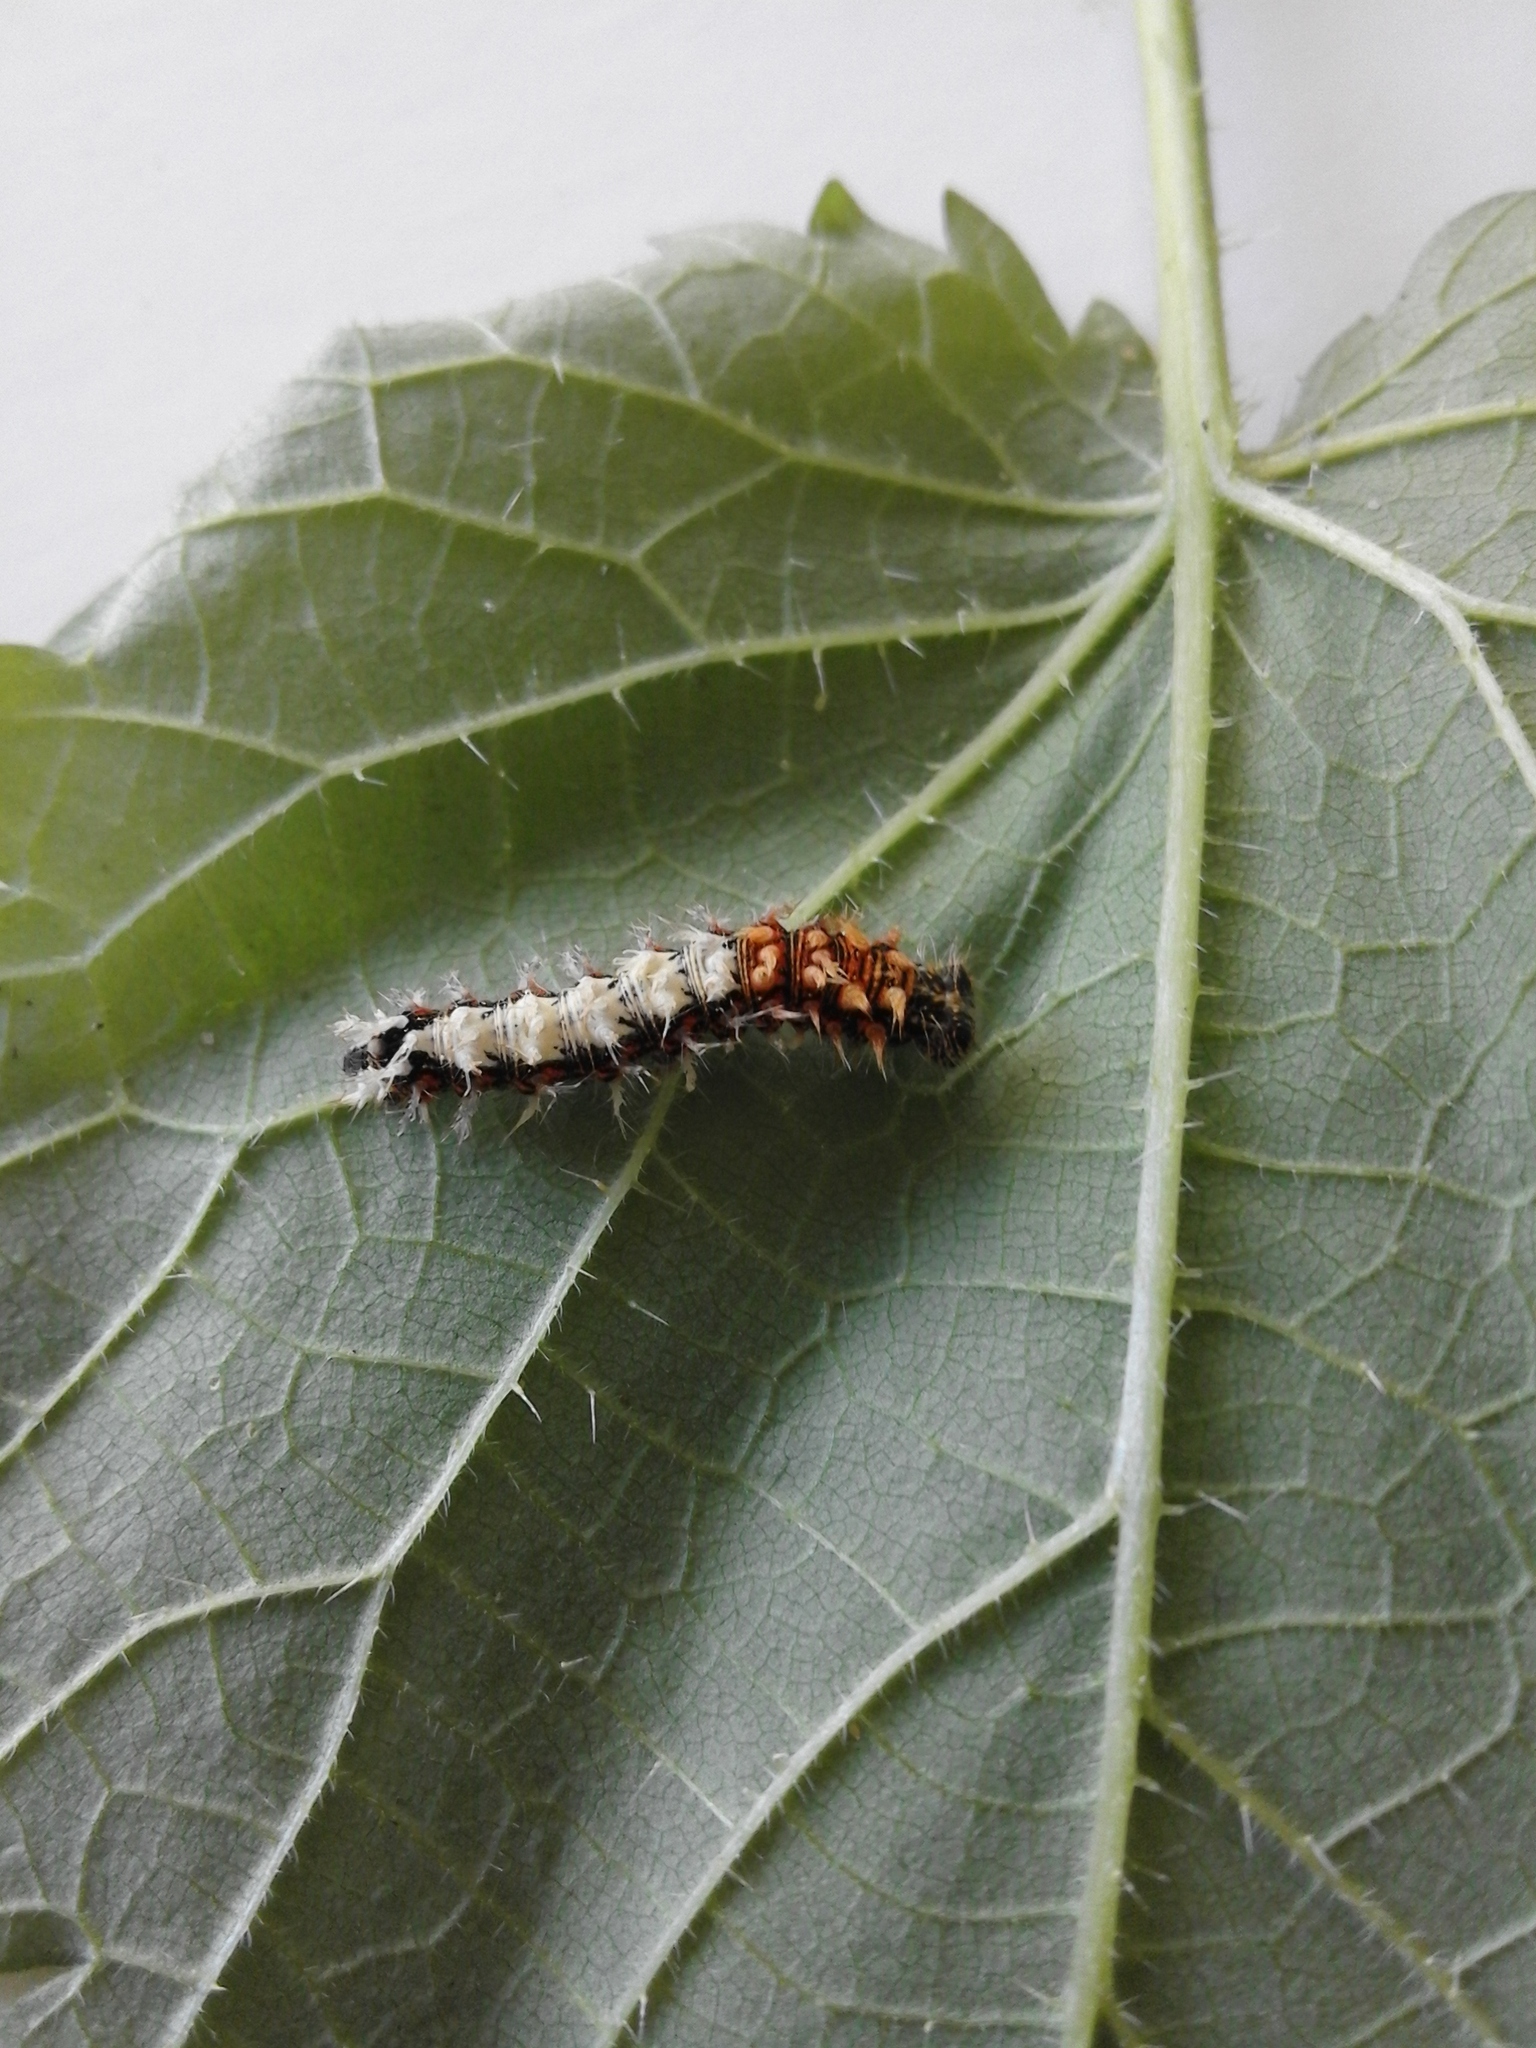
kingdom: Animalia
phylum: Arthropoda
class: Insecta
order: Lepidoptera
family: Nymphalidae
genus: Polygonia
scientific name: Polygonia c-album
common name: Comma
